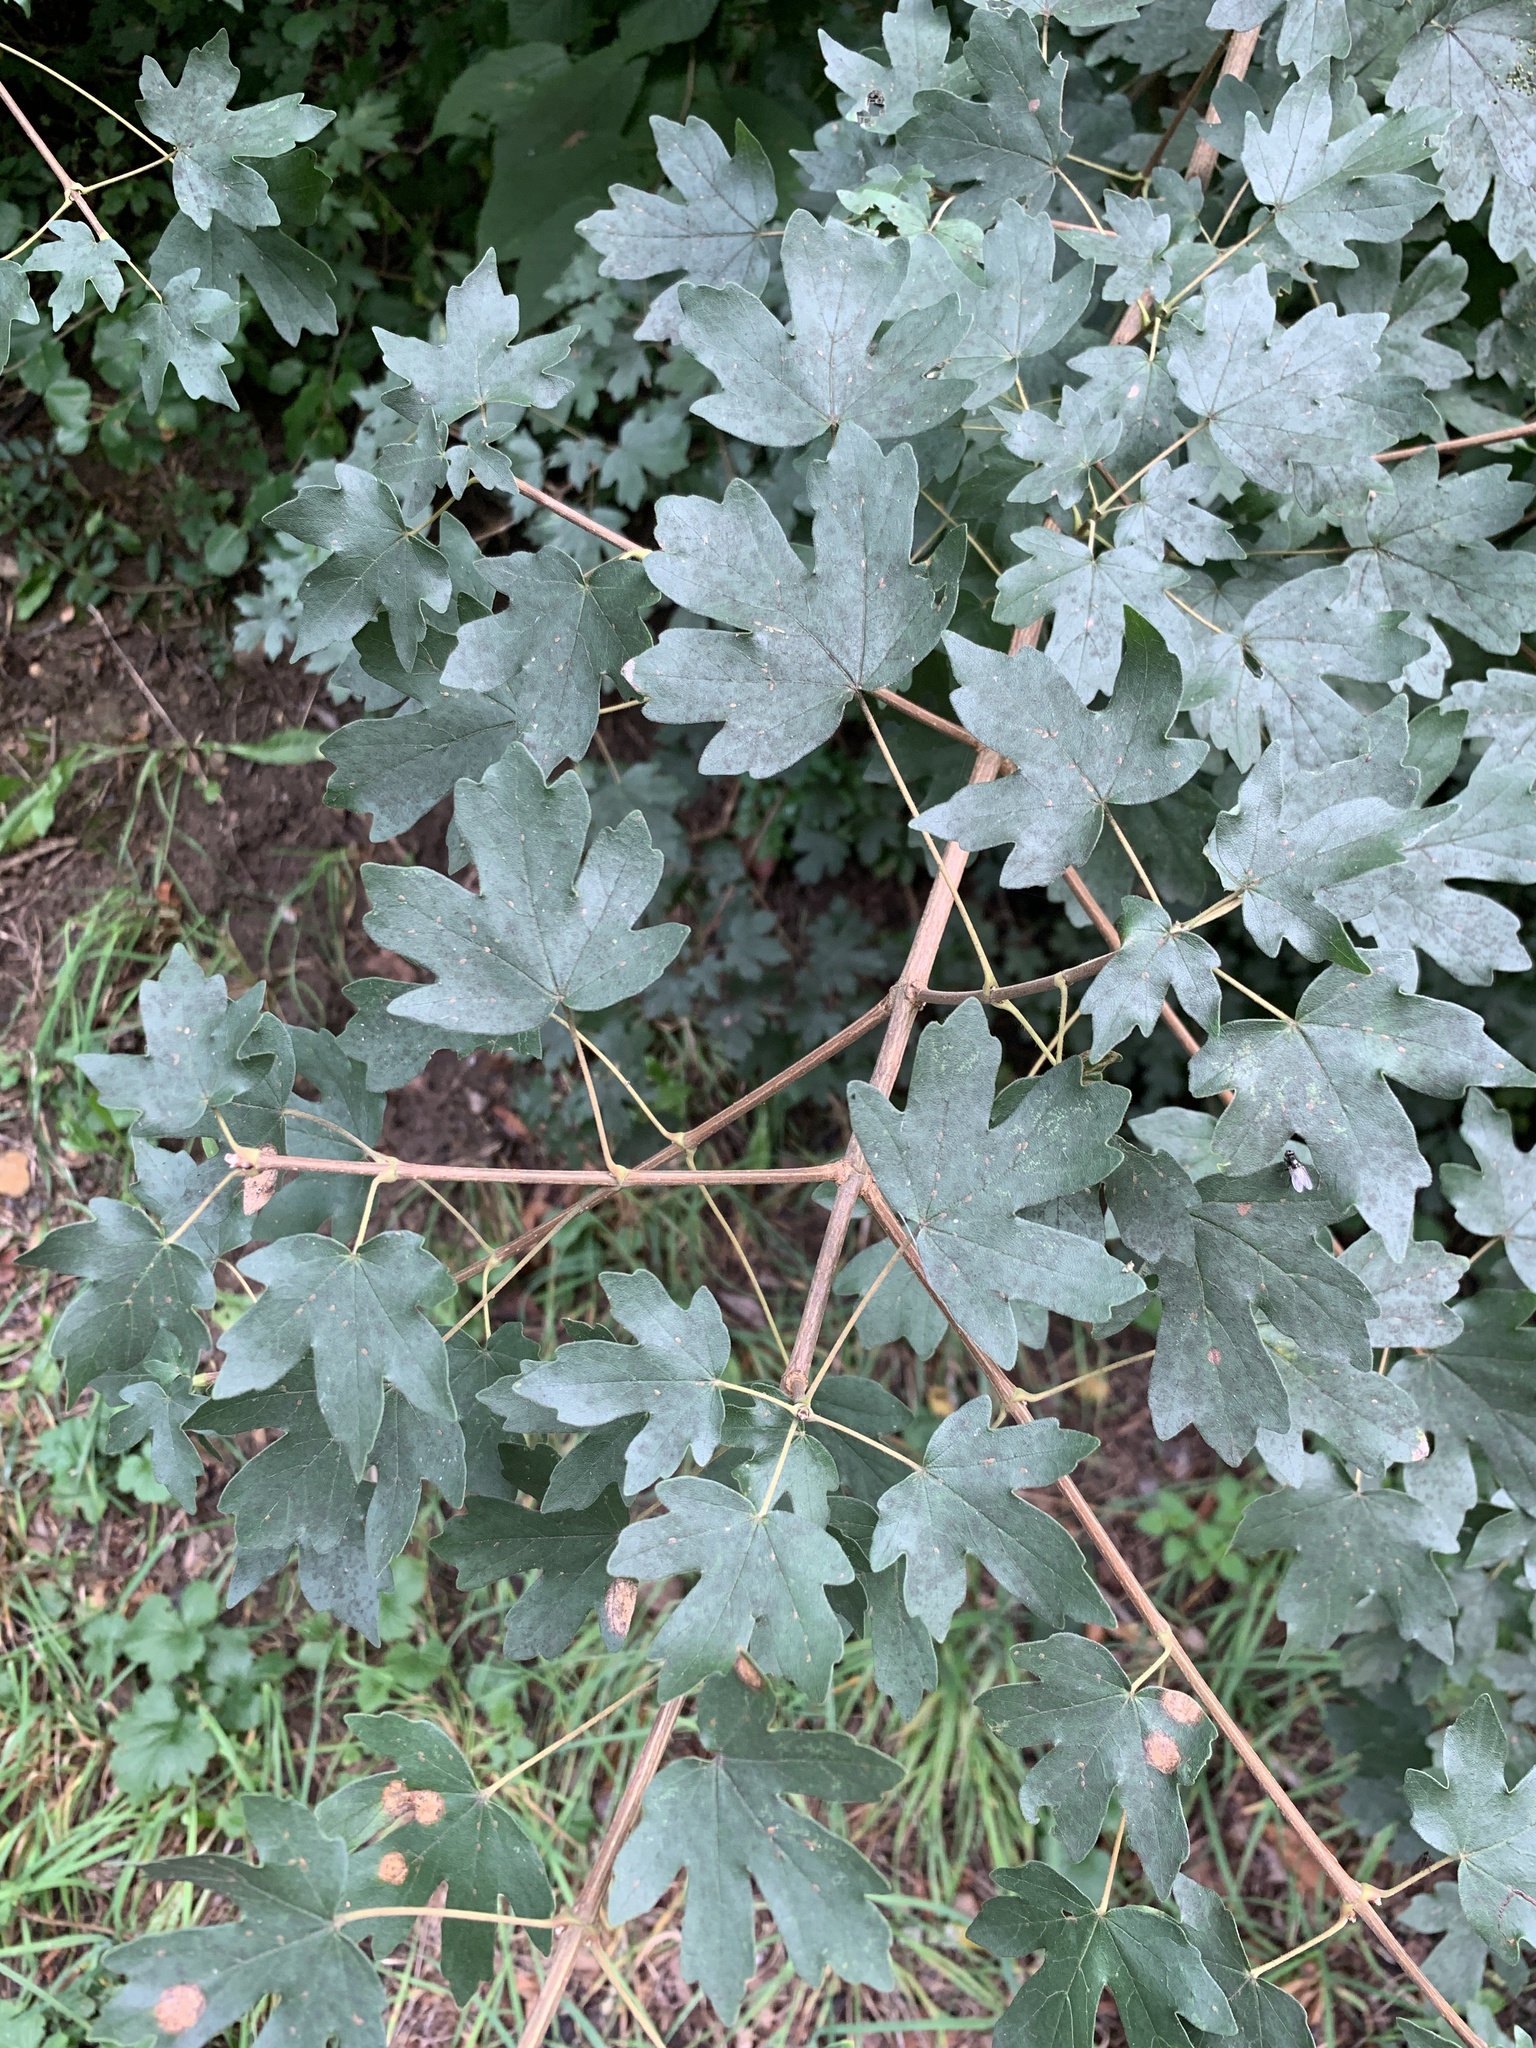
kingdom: Plantae
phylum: Tracheophyta
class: Magnoliopsida
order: Sapindales
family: Sapindaceae
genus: Acer
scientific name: Acer campestre
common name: Field maple
